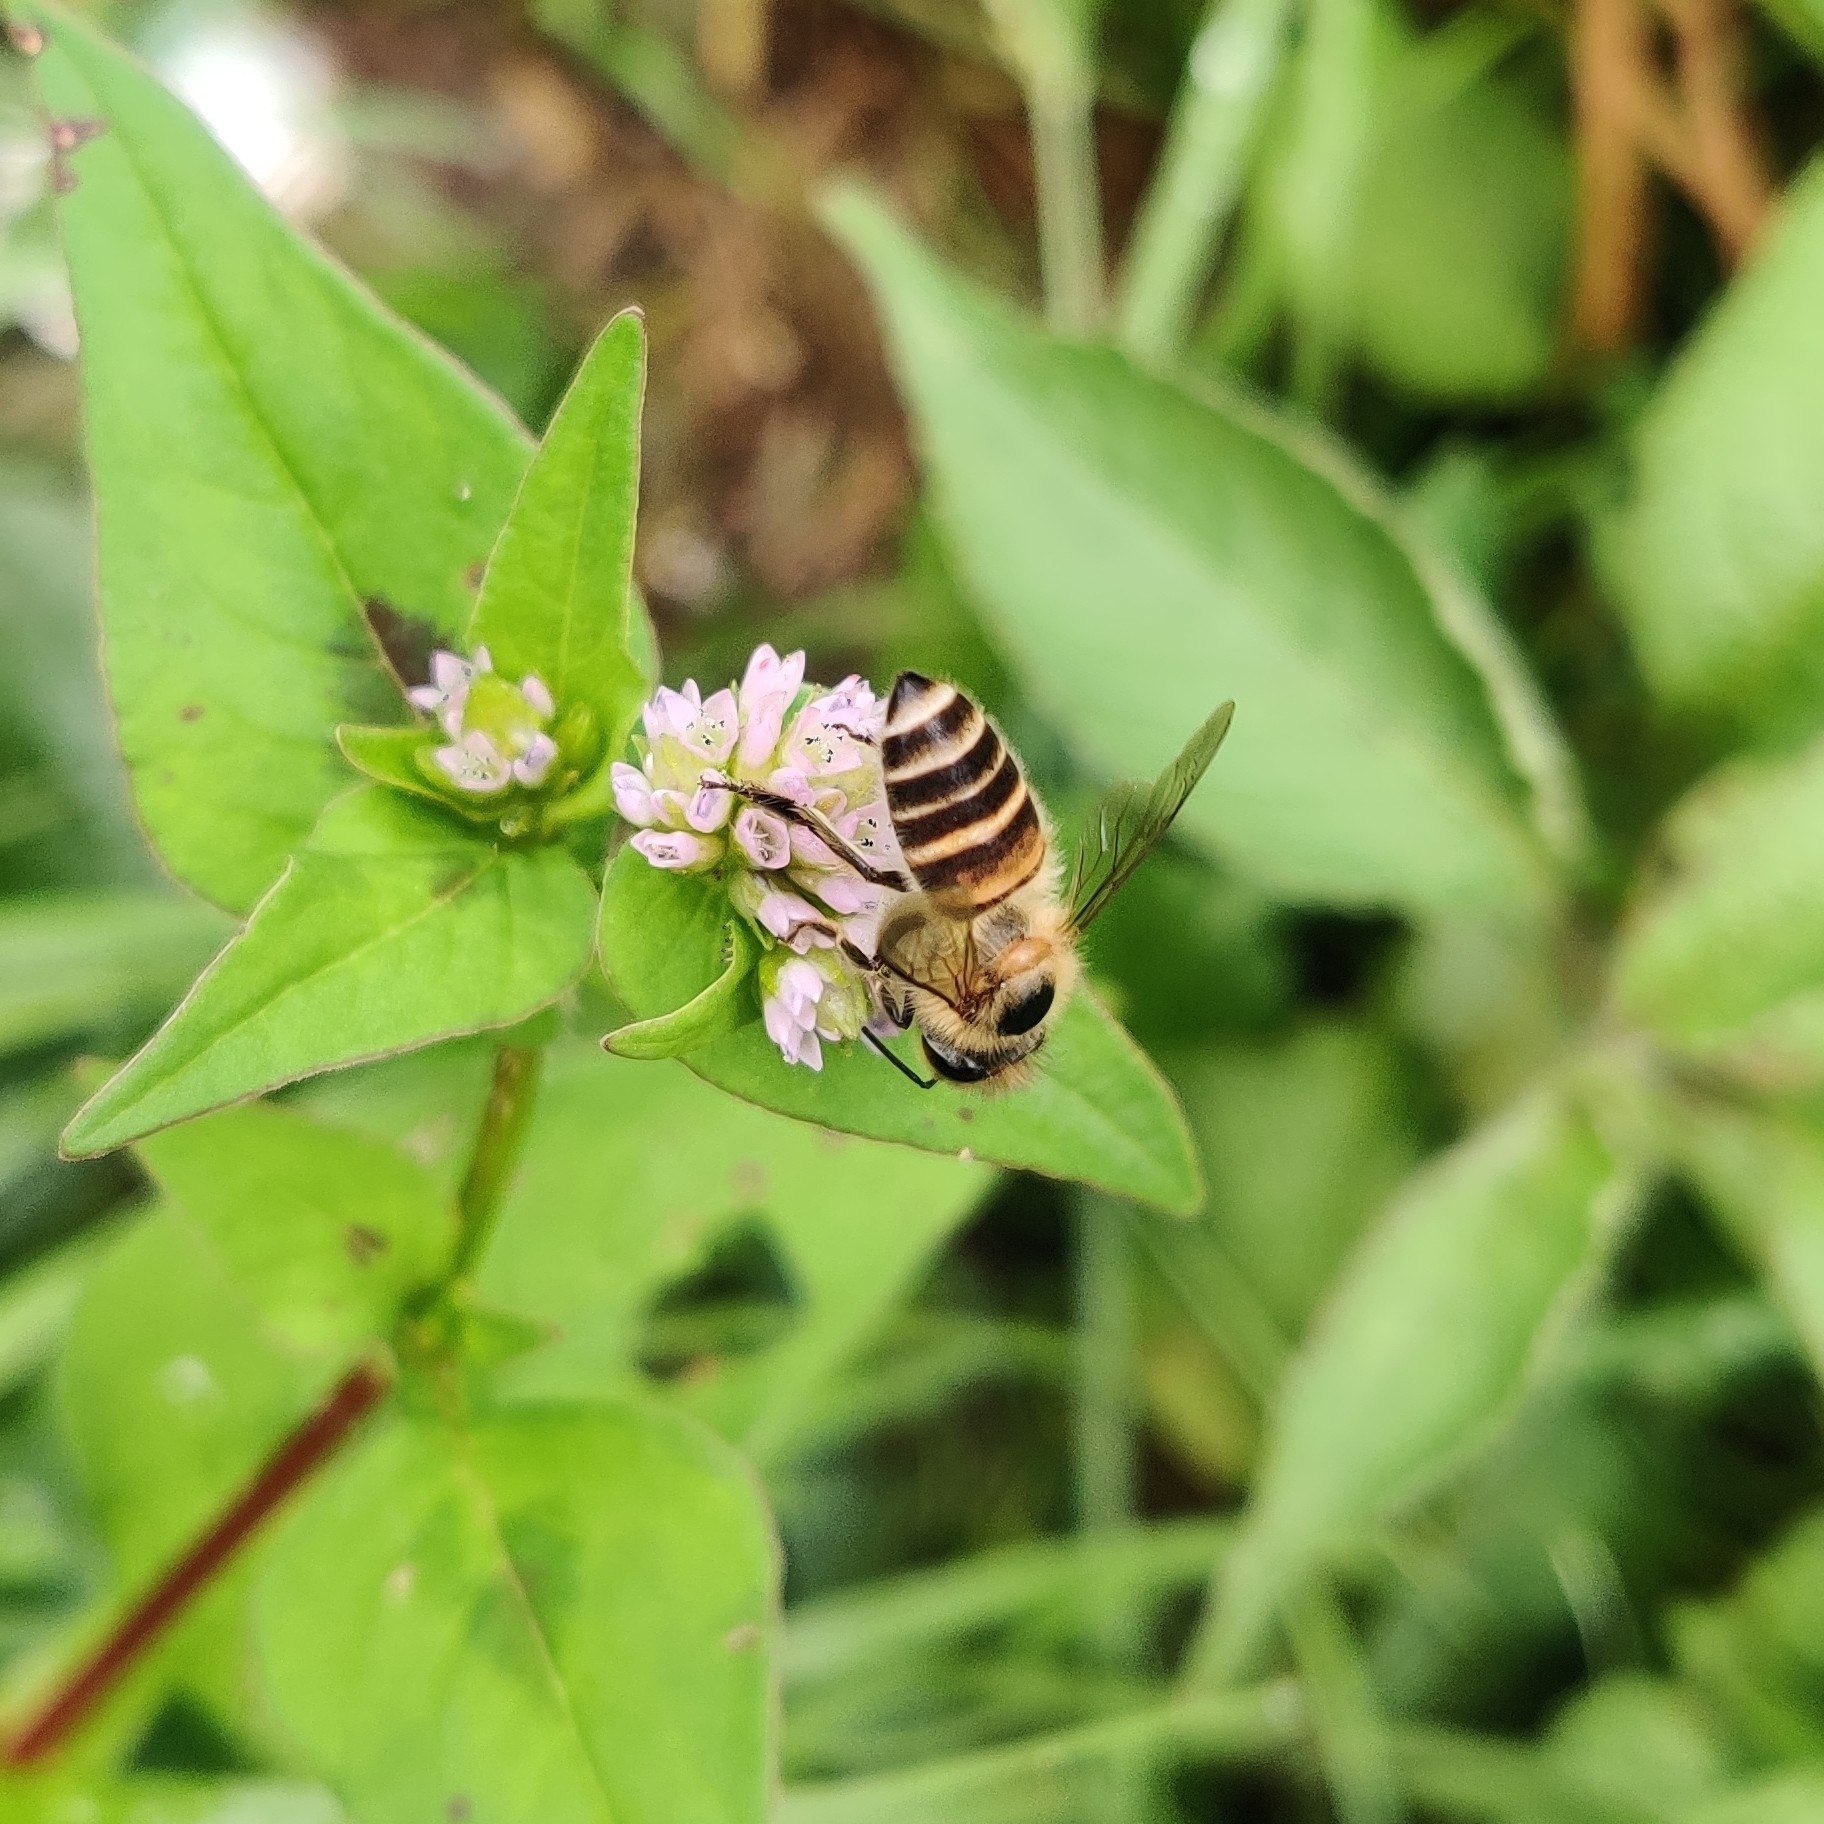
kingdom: Animalia
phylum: Arthropoda
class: Insecta
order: Hymenoptera
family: Apidae
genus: Apis
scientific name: Apis cerana
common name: Honey bee
